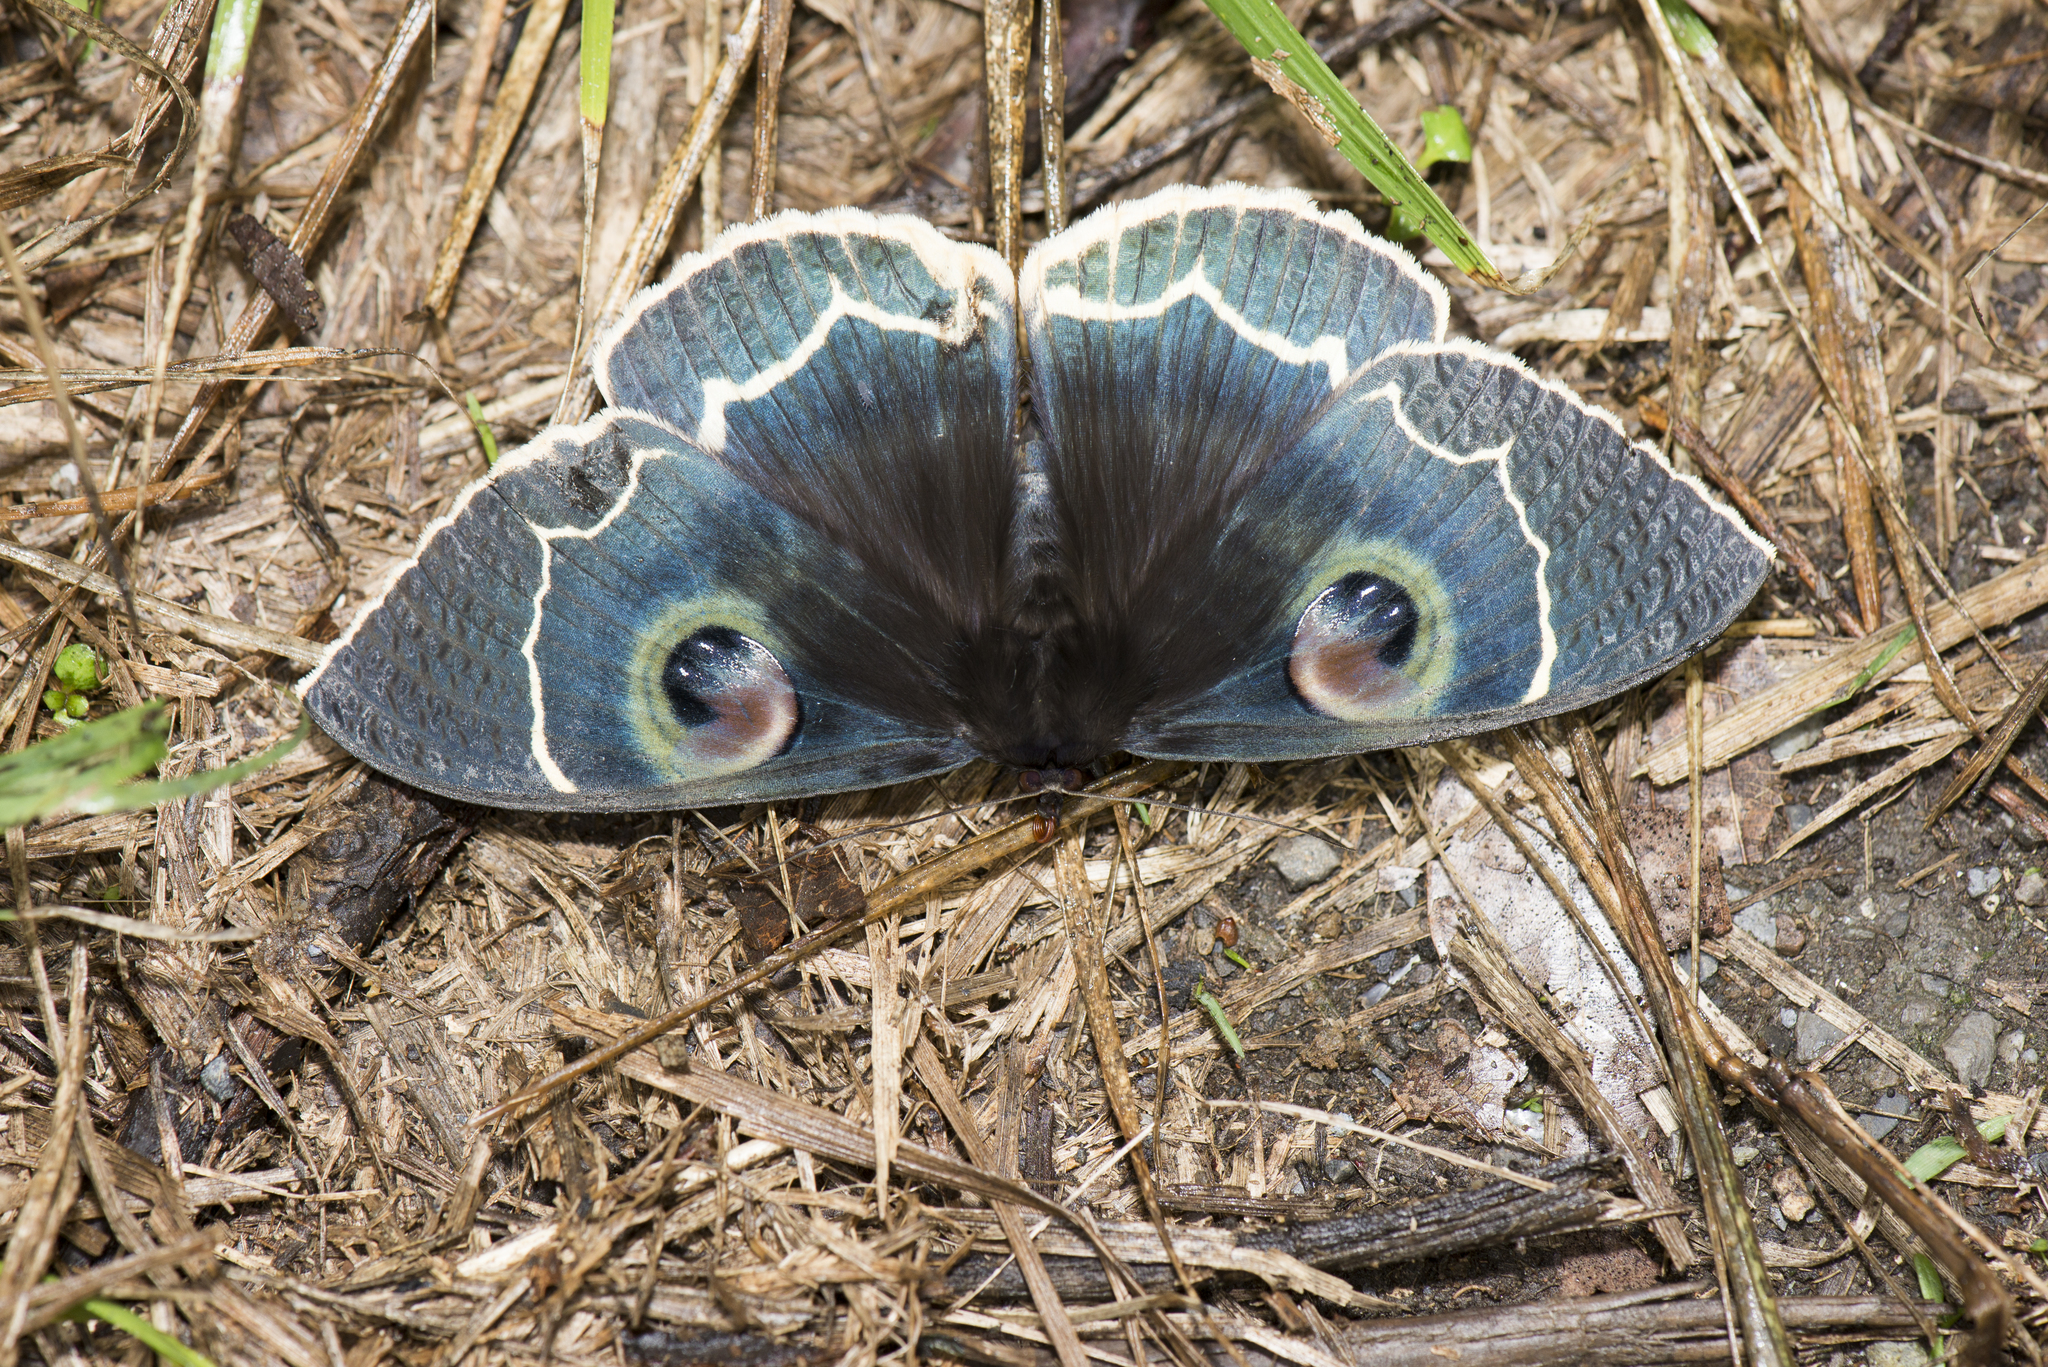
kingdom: Animalia
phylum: Arthropoda
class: Insecta
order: Lepidoptera
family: Erebidae
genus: Erebus
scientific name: Erebus albicinctus
